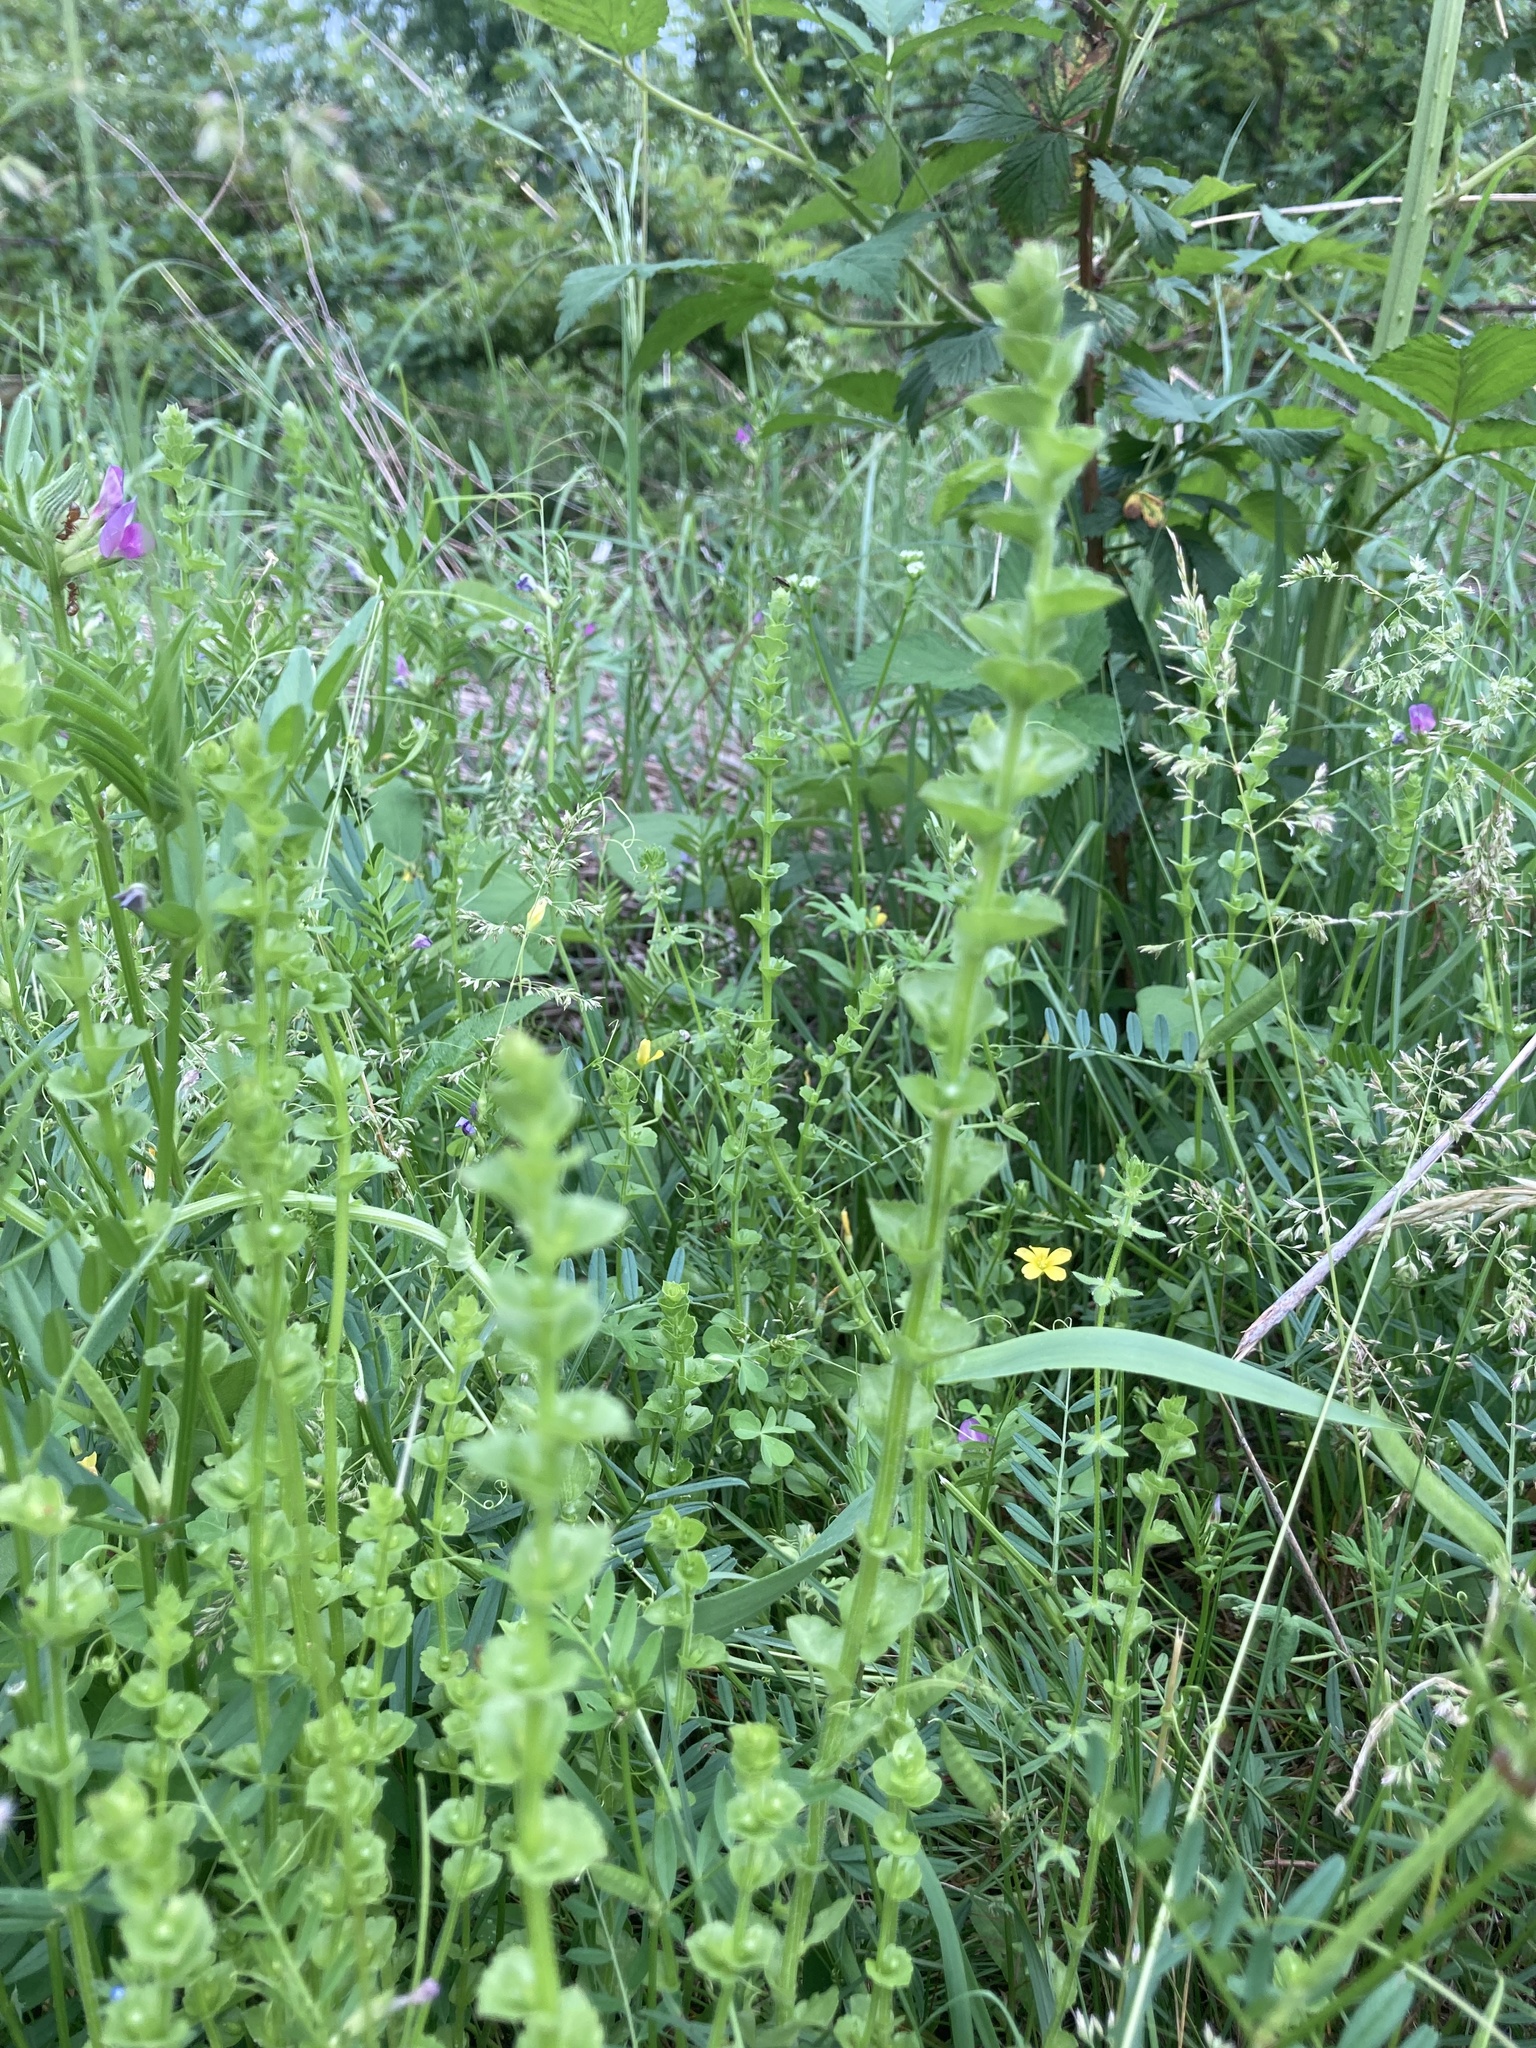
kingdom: Plantae
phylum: Tracheophyta
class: Magnoliopsida
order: Asterales
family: Campanulaceae
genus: Triodanis
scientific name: Triodanis perfoliata
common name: Clasping venus' looking-glass
